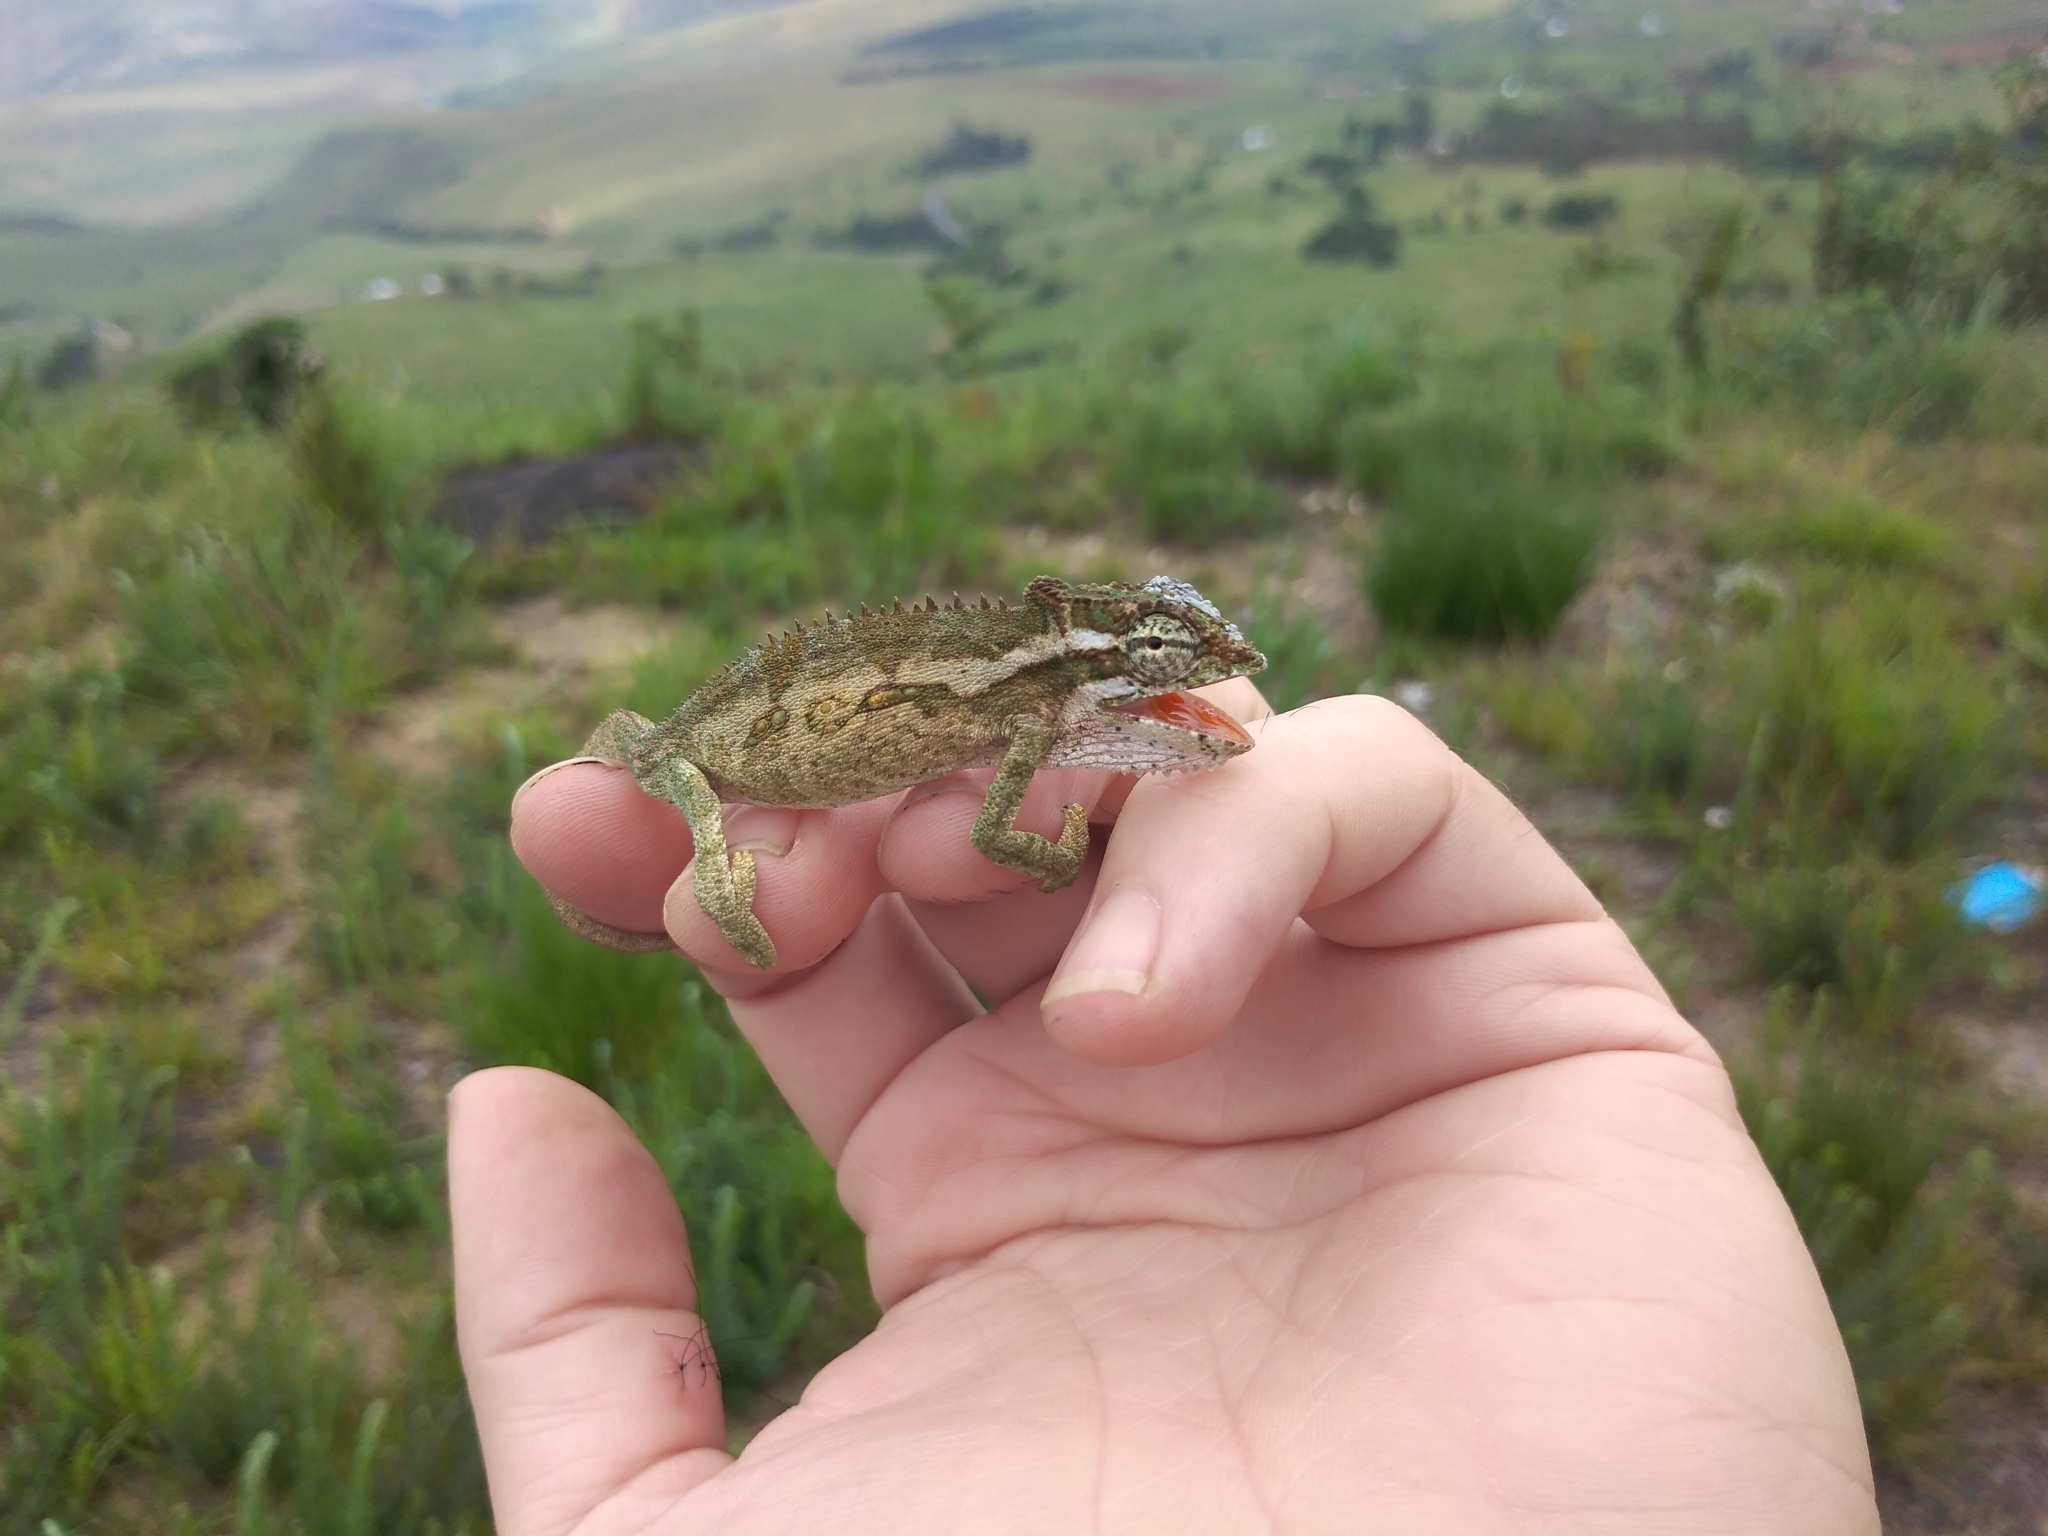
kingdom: Animalia
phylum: Chordata
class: Squamata
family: Chamaeleonidae
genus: Bradypodion
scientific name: Bradypodion thamnobates
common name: Natal midlands dwarf chameleon
